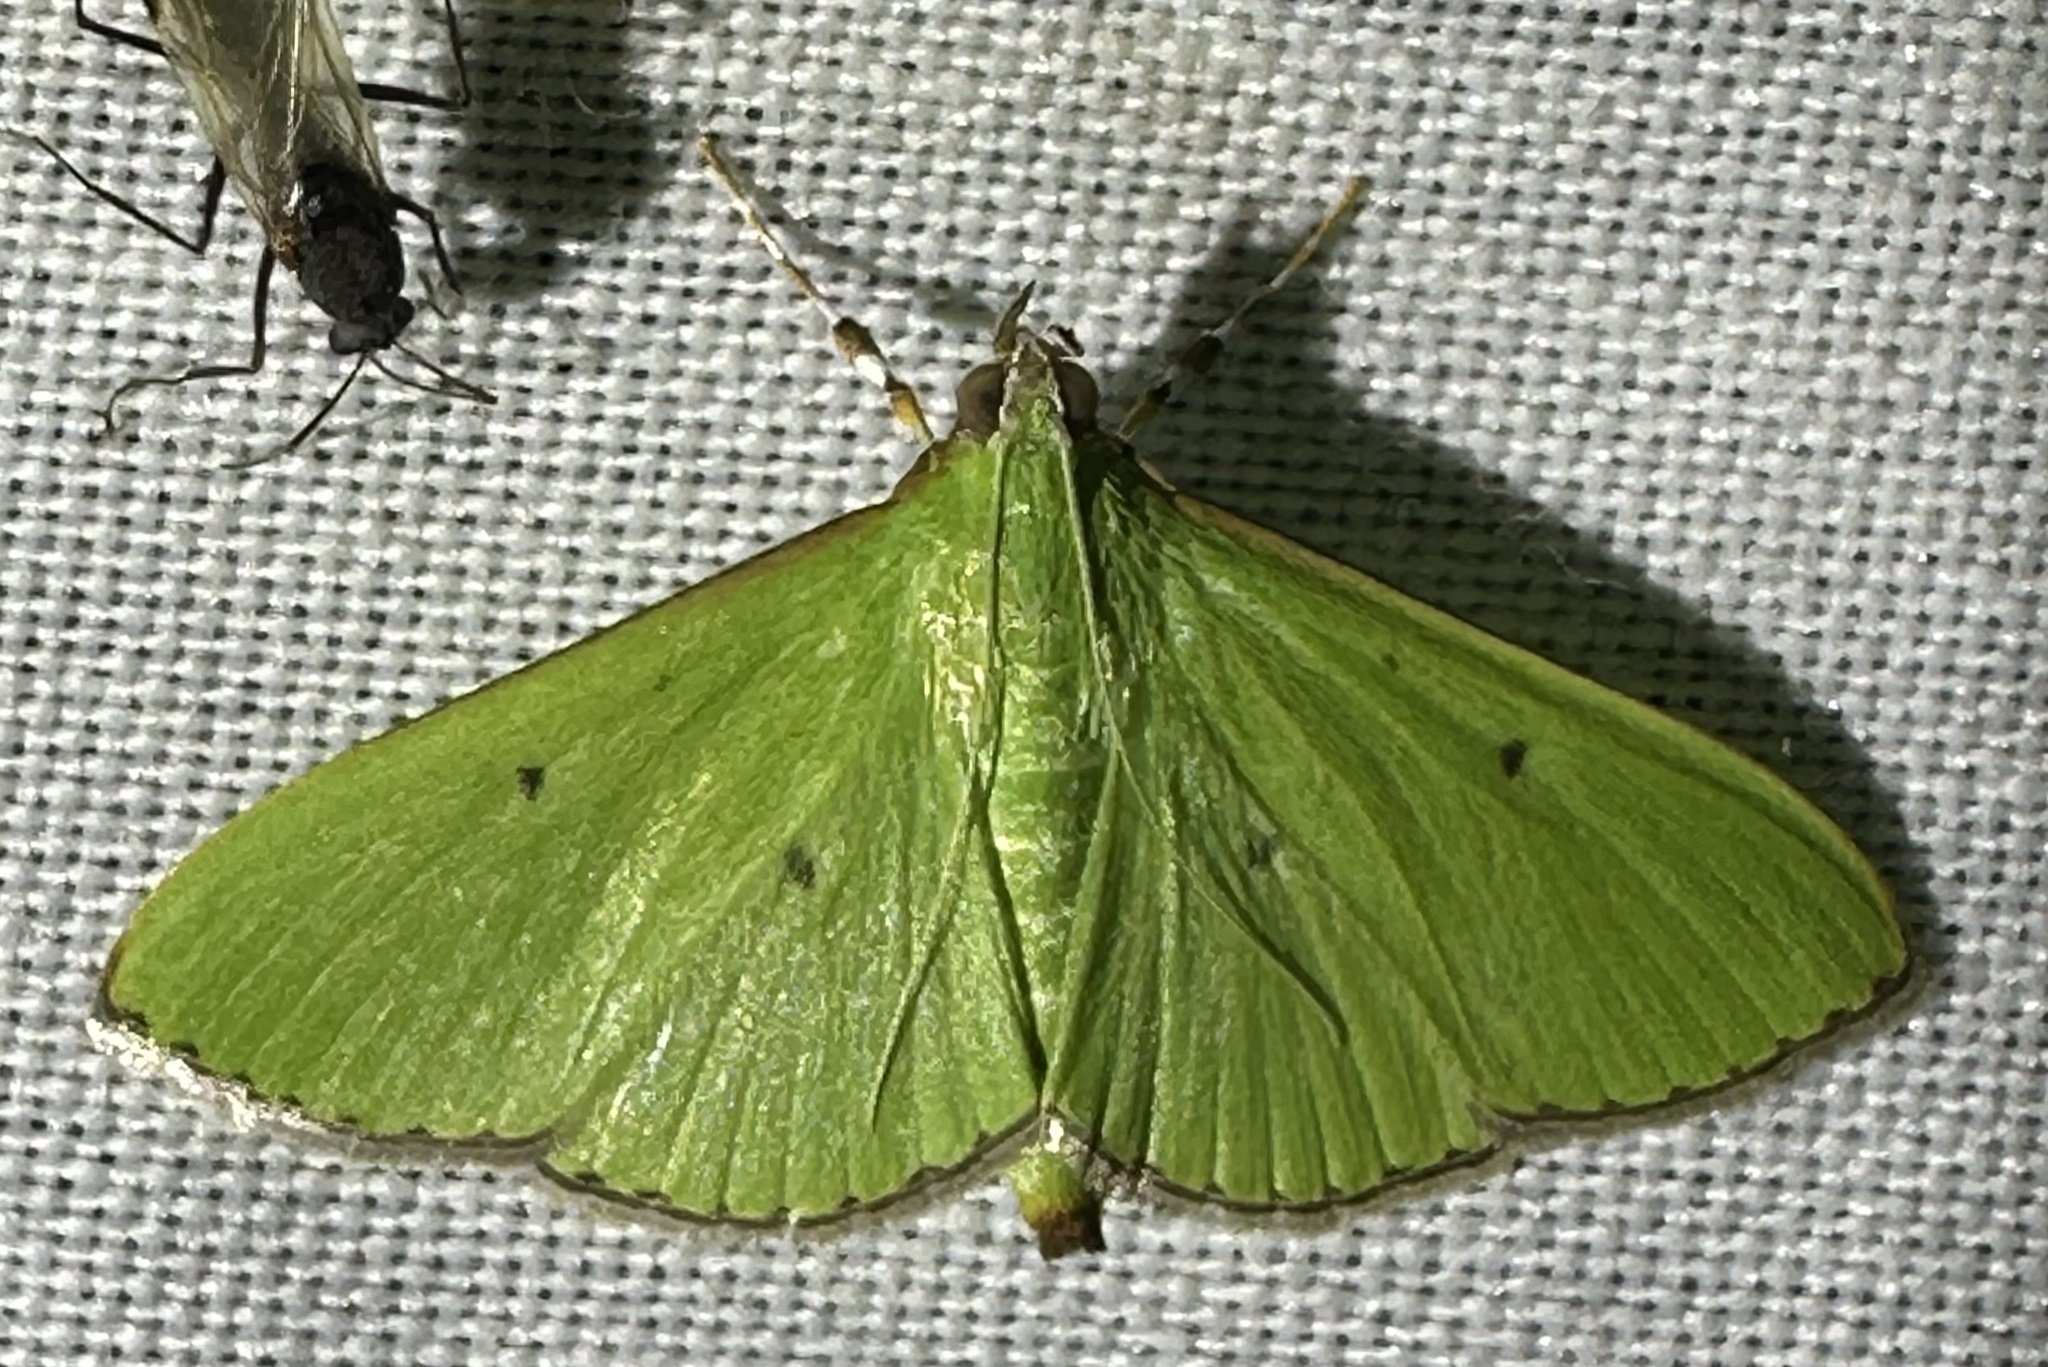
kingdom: Animalia
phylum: Arthropoda
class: Insecta
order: Lepidoptera
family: Crambidae
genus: Parotis
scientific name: Parotis prasinophila
